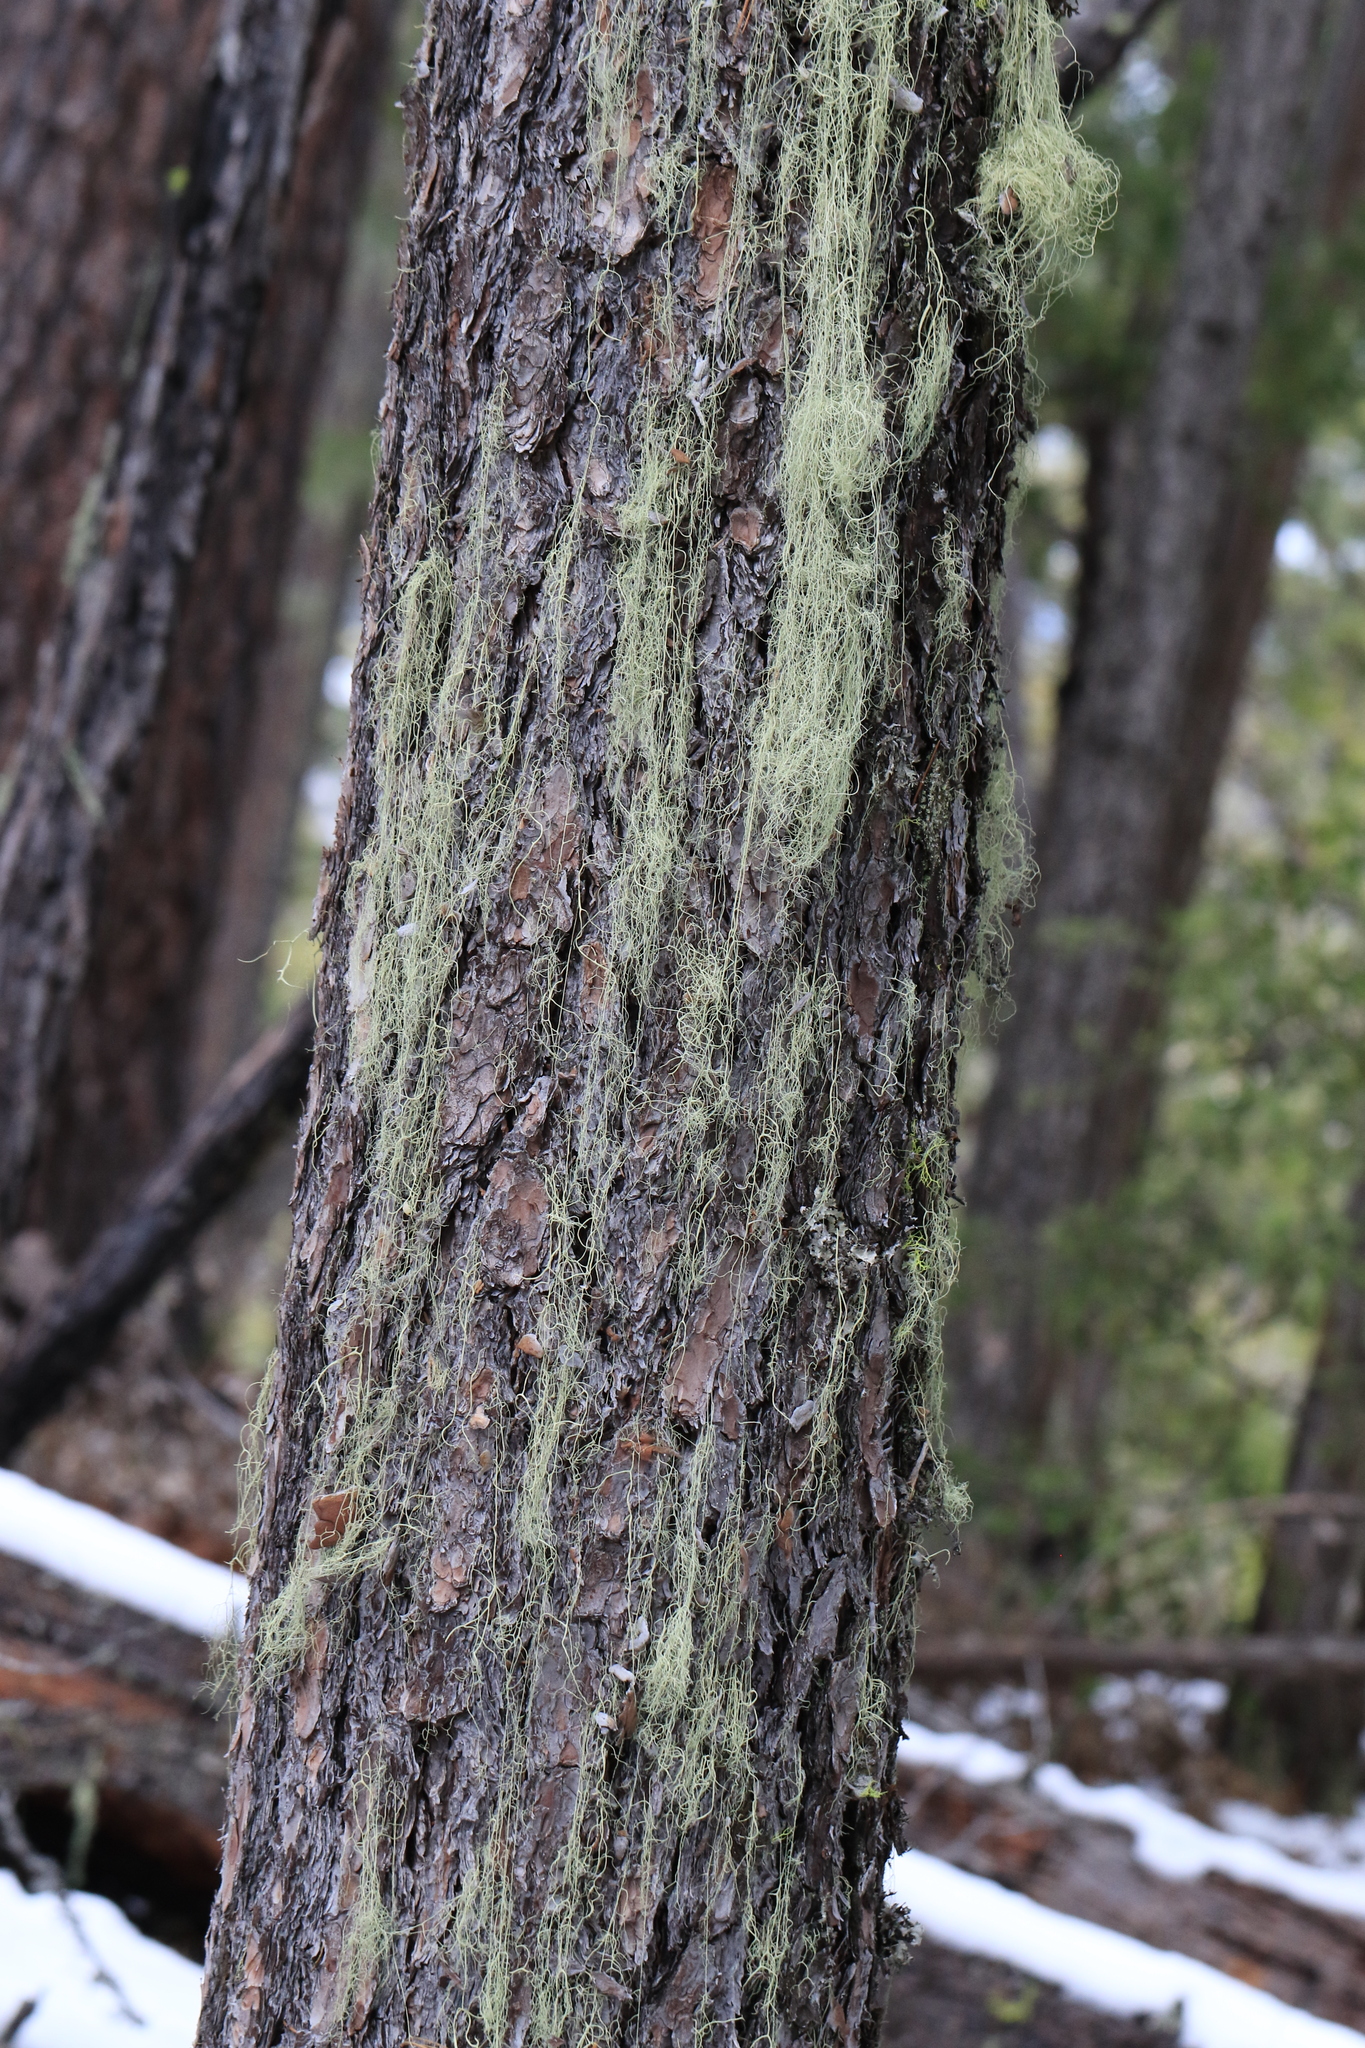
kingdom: Plantae
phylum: Tracheophyta
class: Pinopsida
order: Pinales
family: Pinaceae
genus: Pinus
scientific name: Pinus lambertiana
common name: Sugar pine
